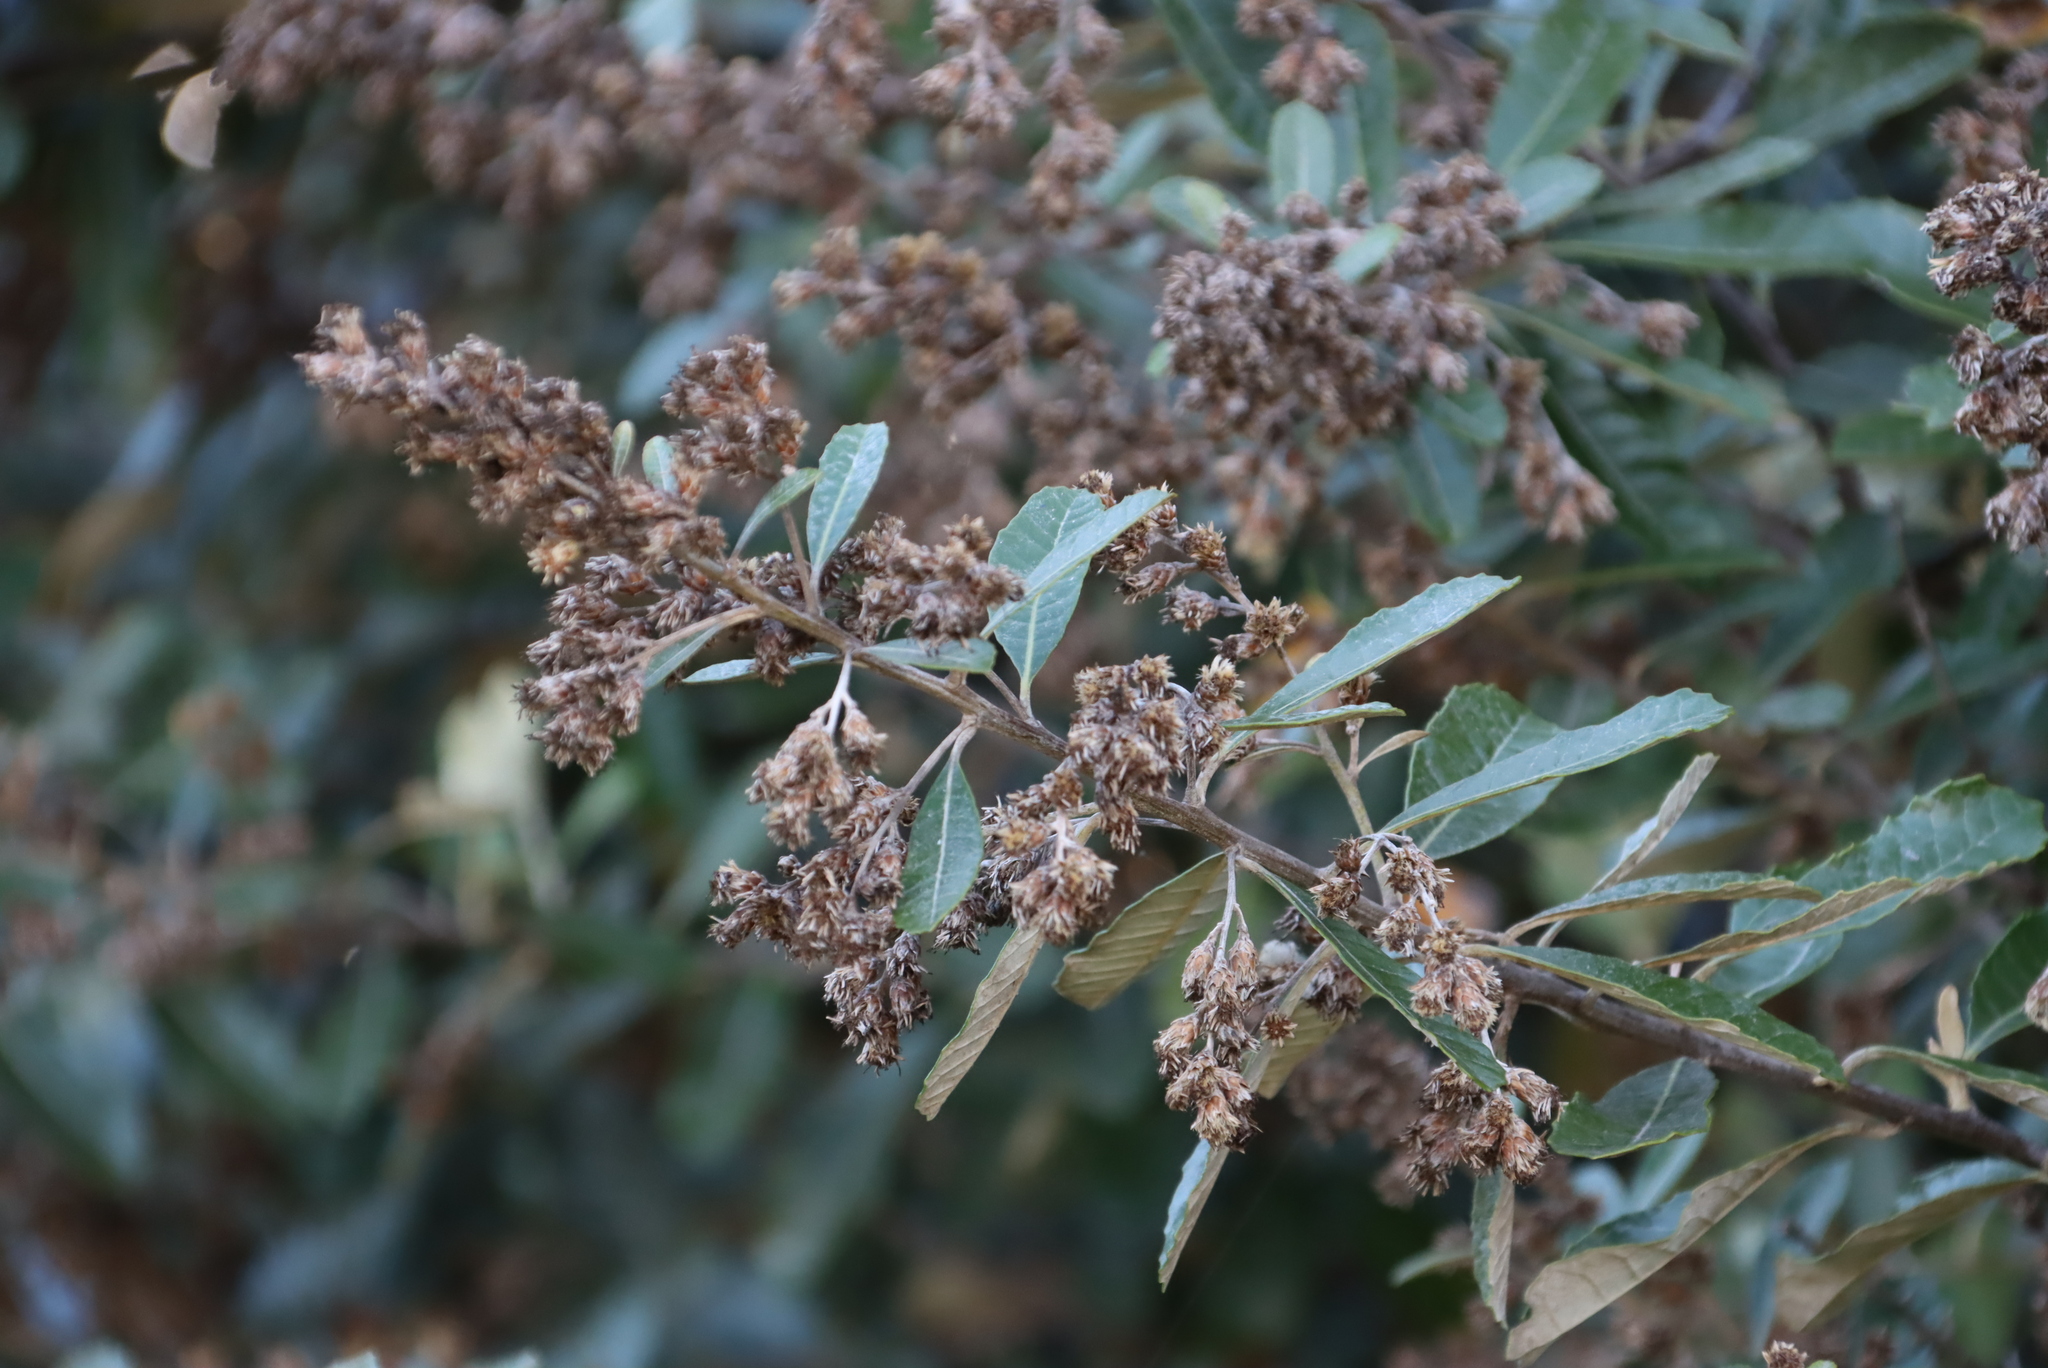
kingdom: Plantae
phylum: Tracheophyta
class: Magnoliopsida
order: Asterales
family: Asteraceae
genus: Brachylaena
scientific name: Brachylaena discolor
